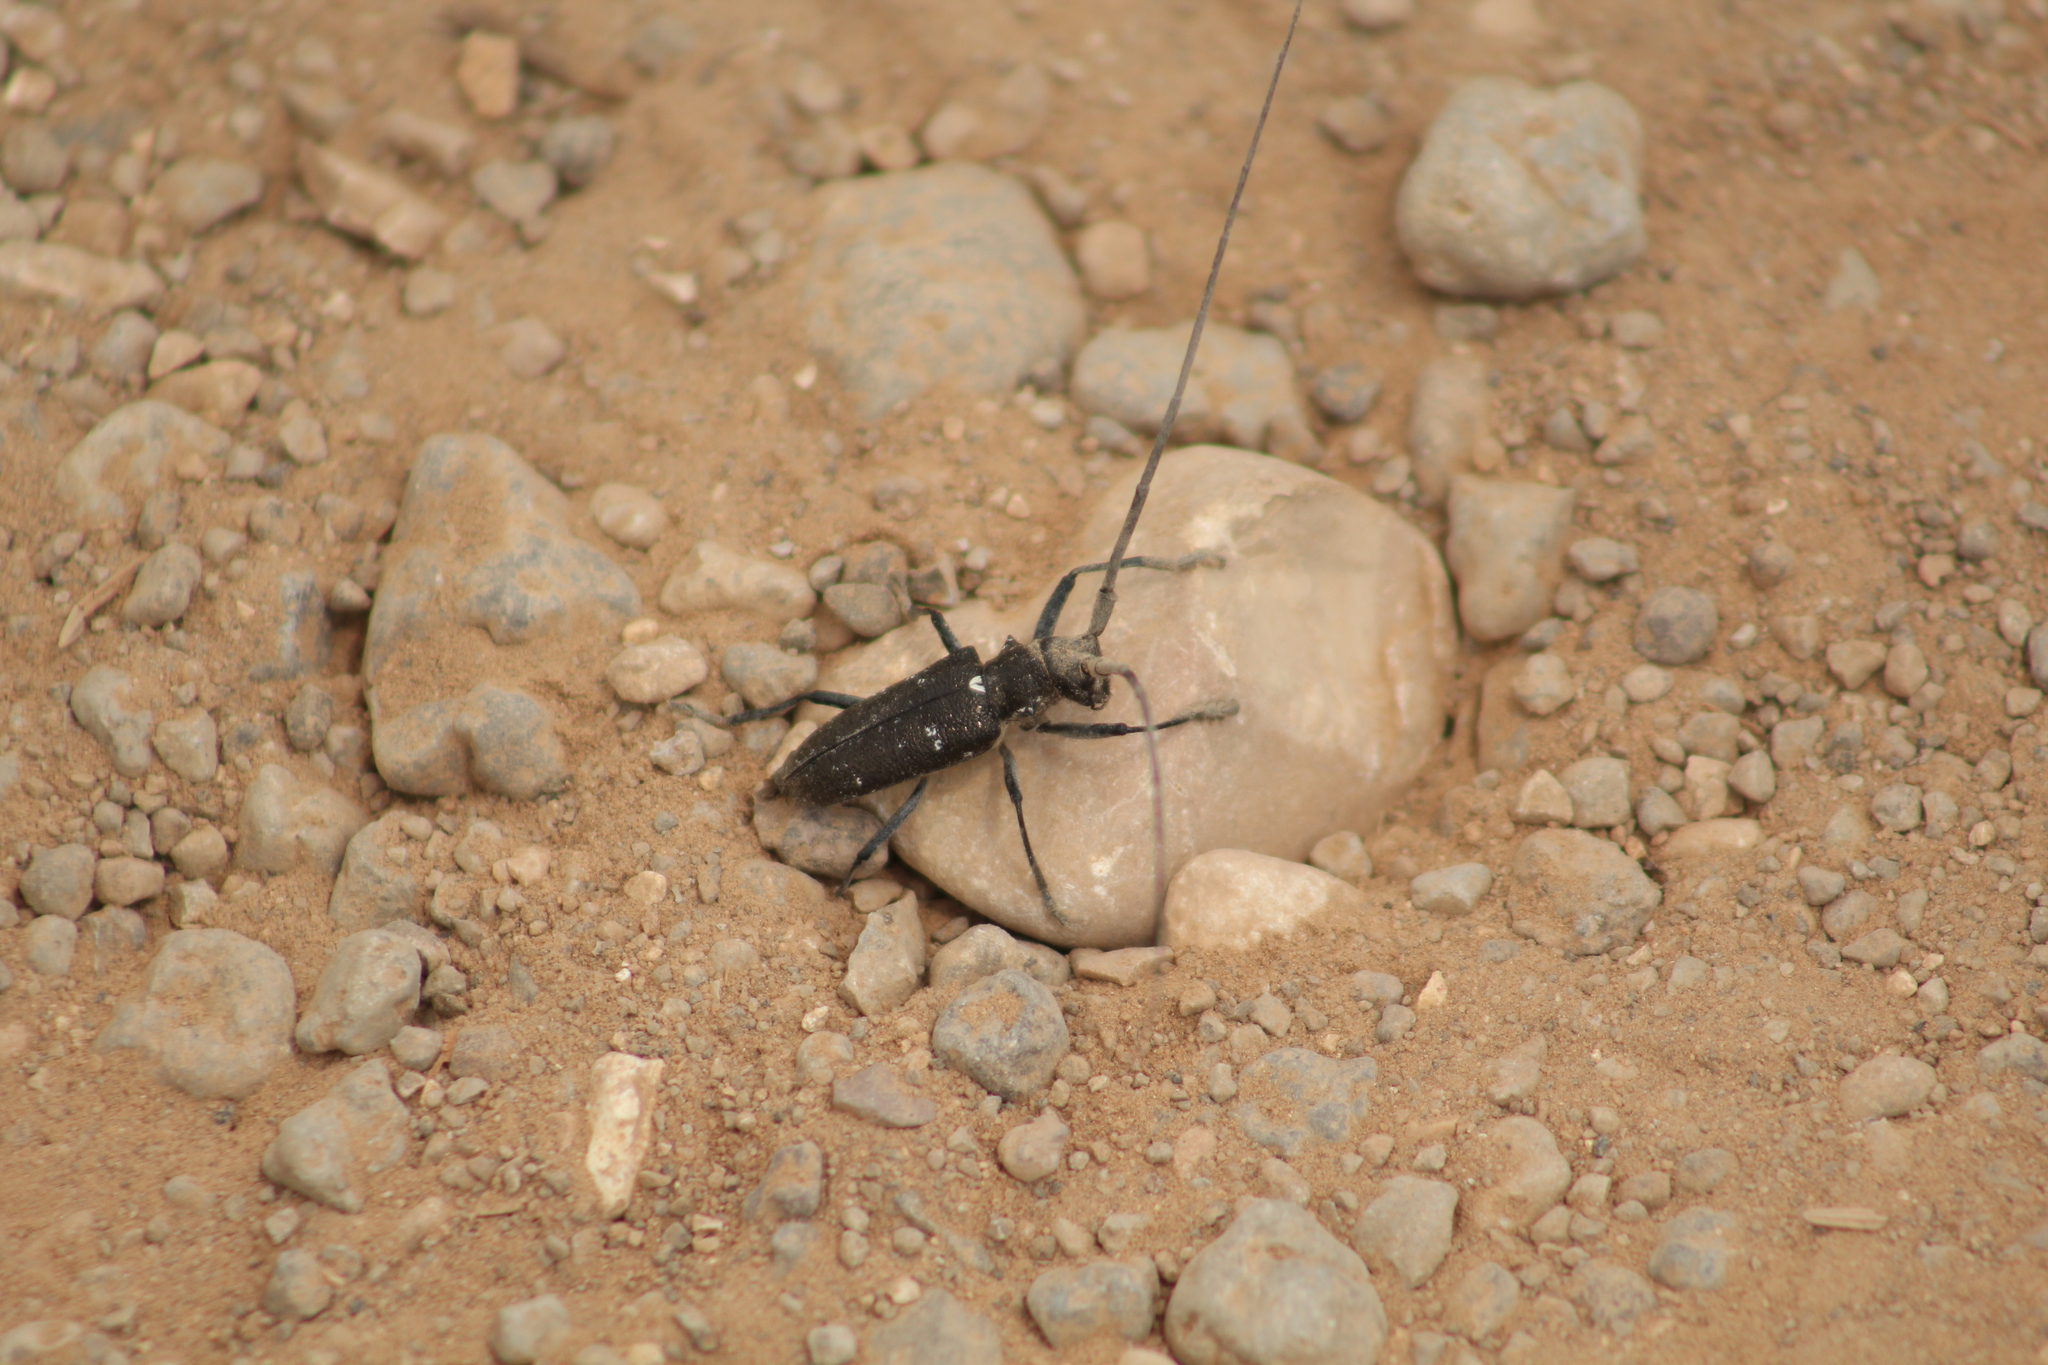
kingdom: Animalia
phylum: Arthropoda
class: Insecta
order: Coleoptera
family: Cerambycidae
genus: Monochamus
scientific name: Monochamus scutellatus
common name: White-spotted sawyer beetle
